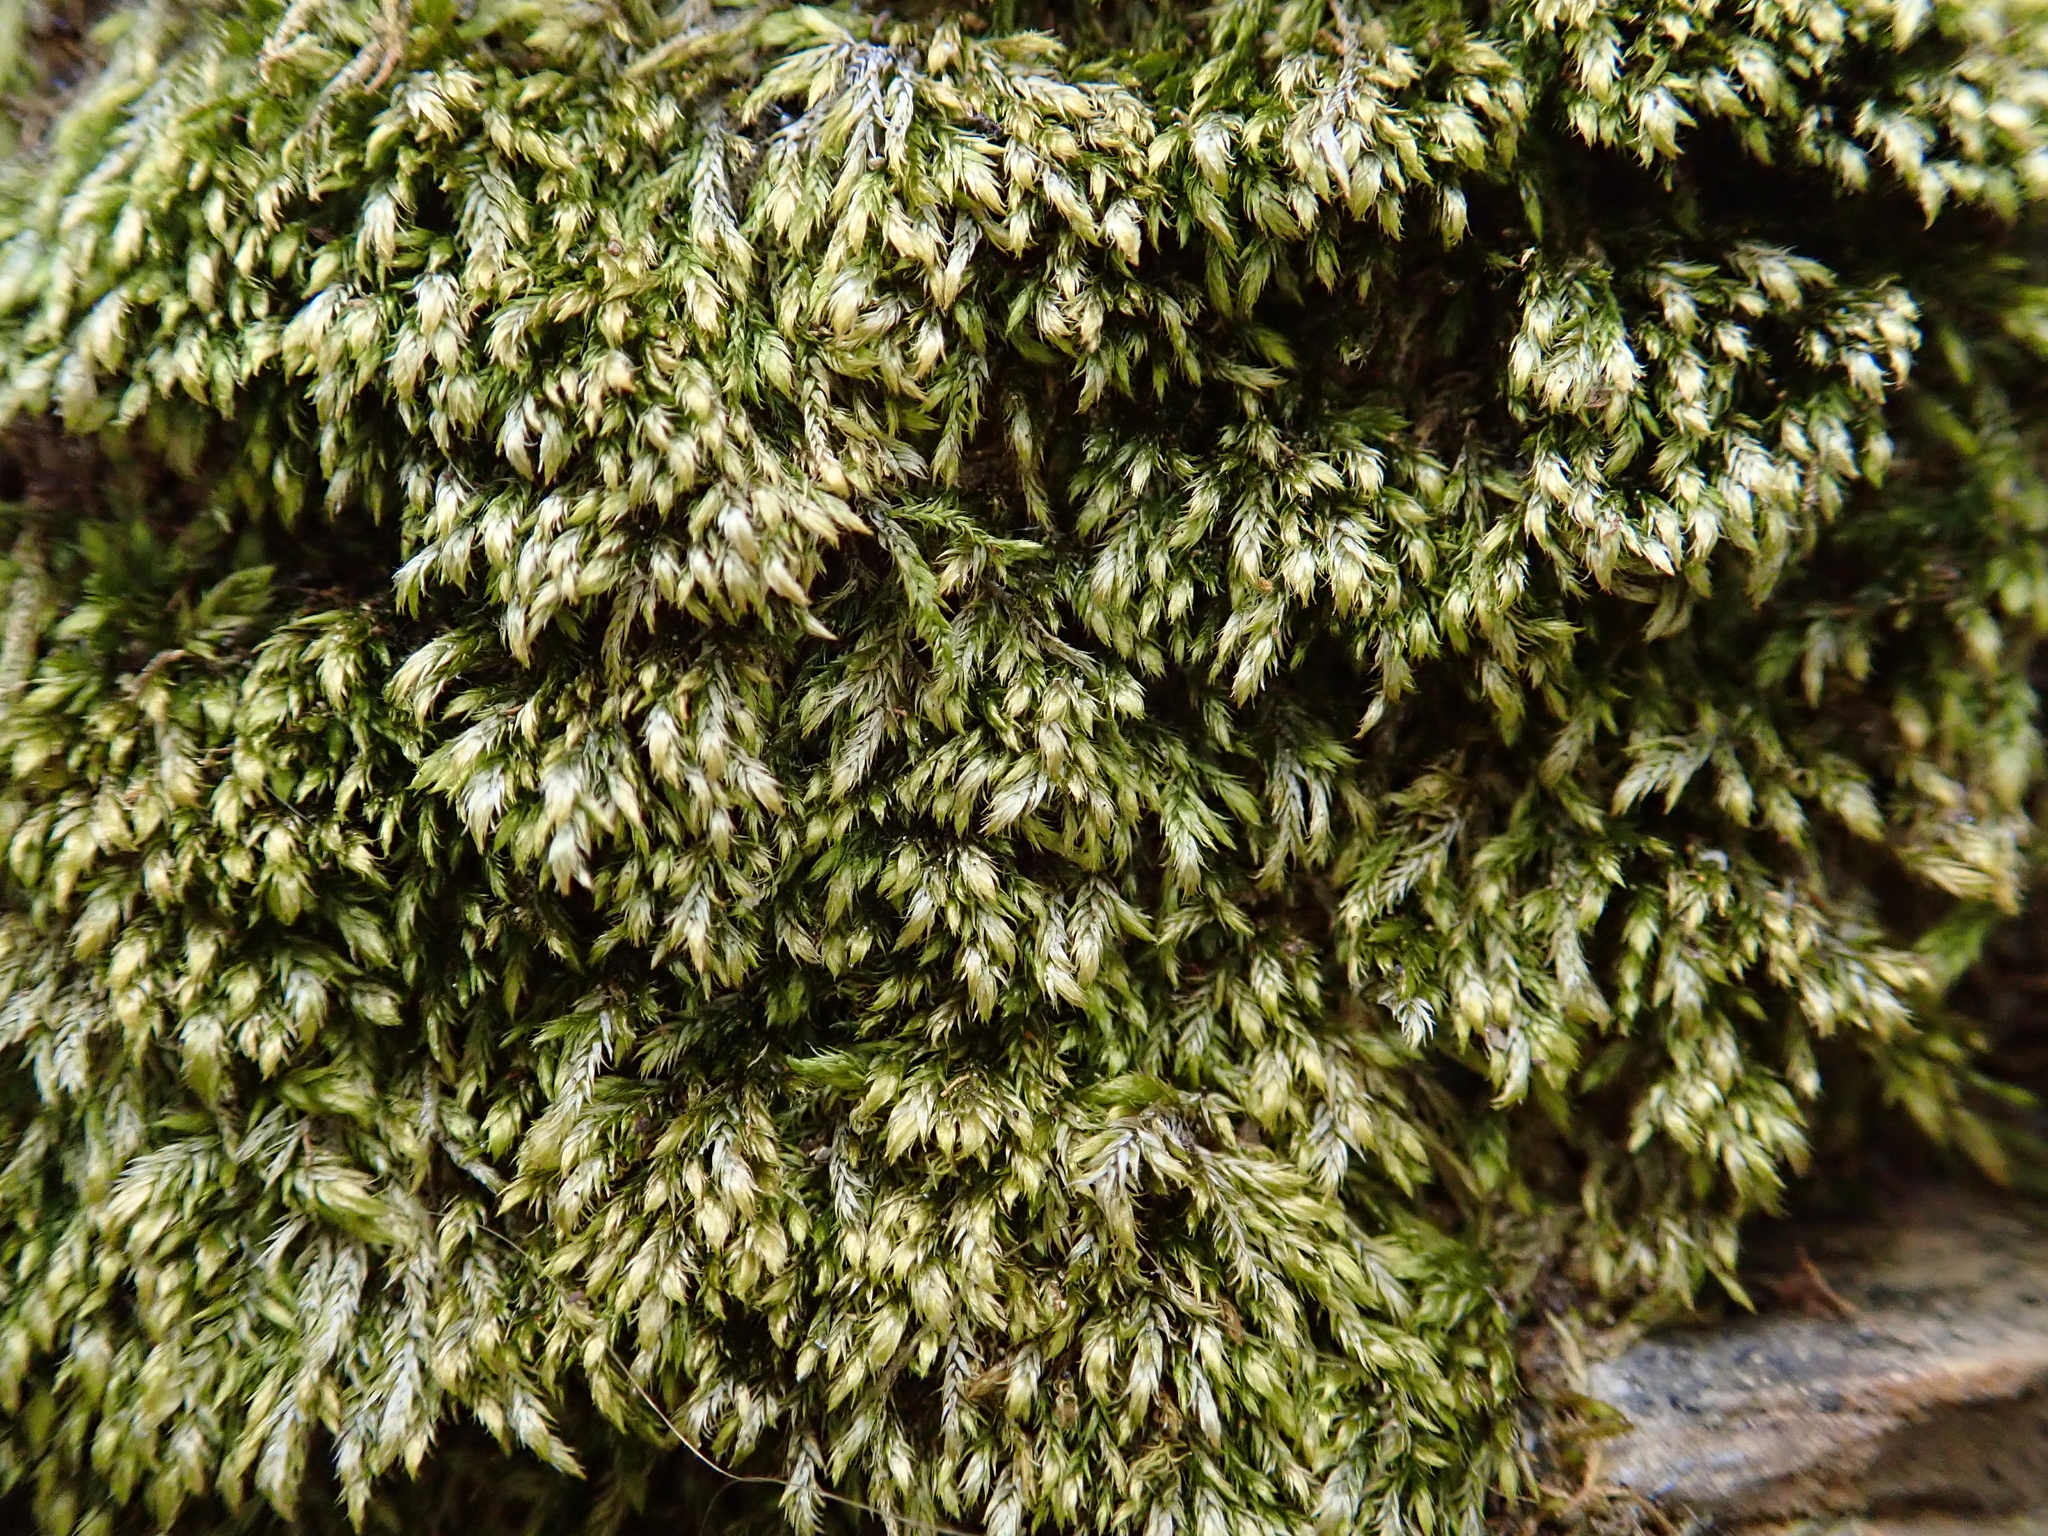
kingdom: Plantae
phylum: Bryophyta
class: Bryopsida
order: Hypnales
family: Brachytheciaceae
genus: Plasteurhynchium
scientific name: Plasteurhynchium striatulum
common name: Lesser striated feather-moss
